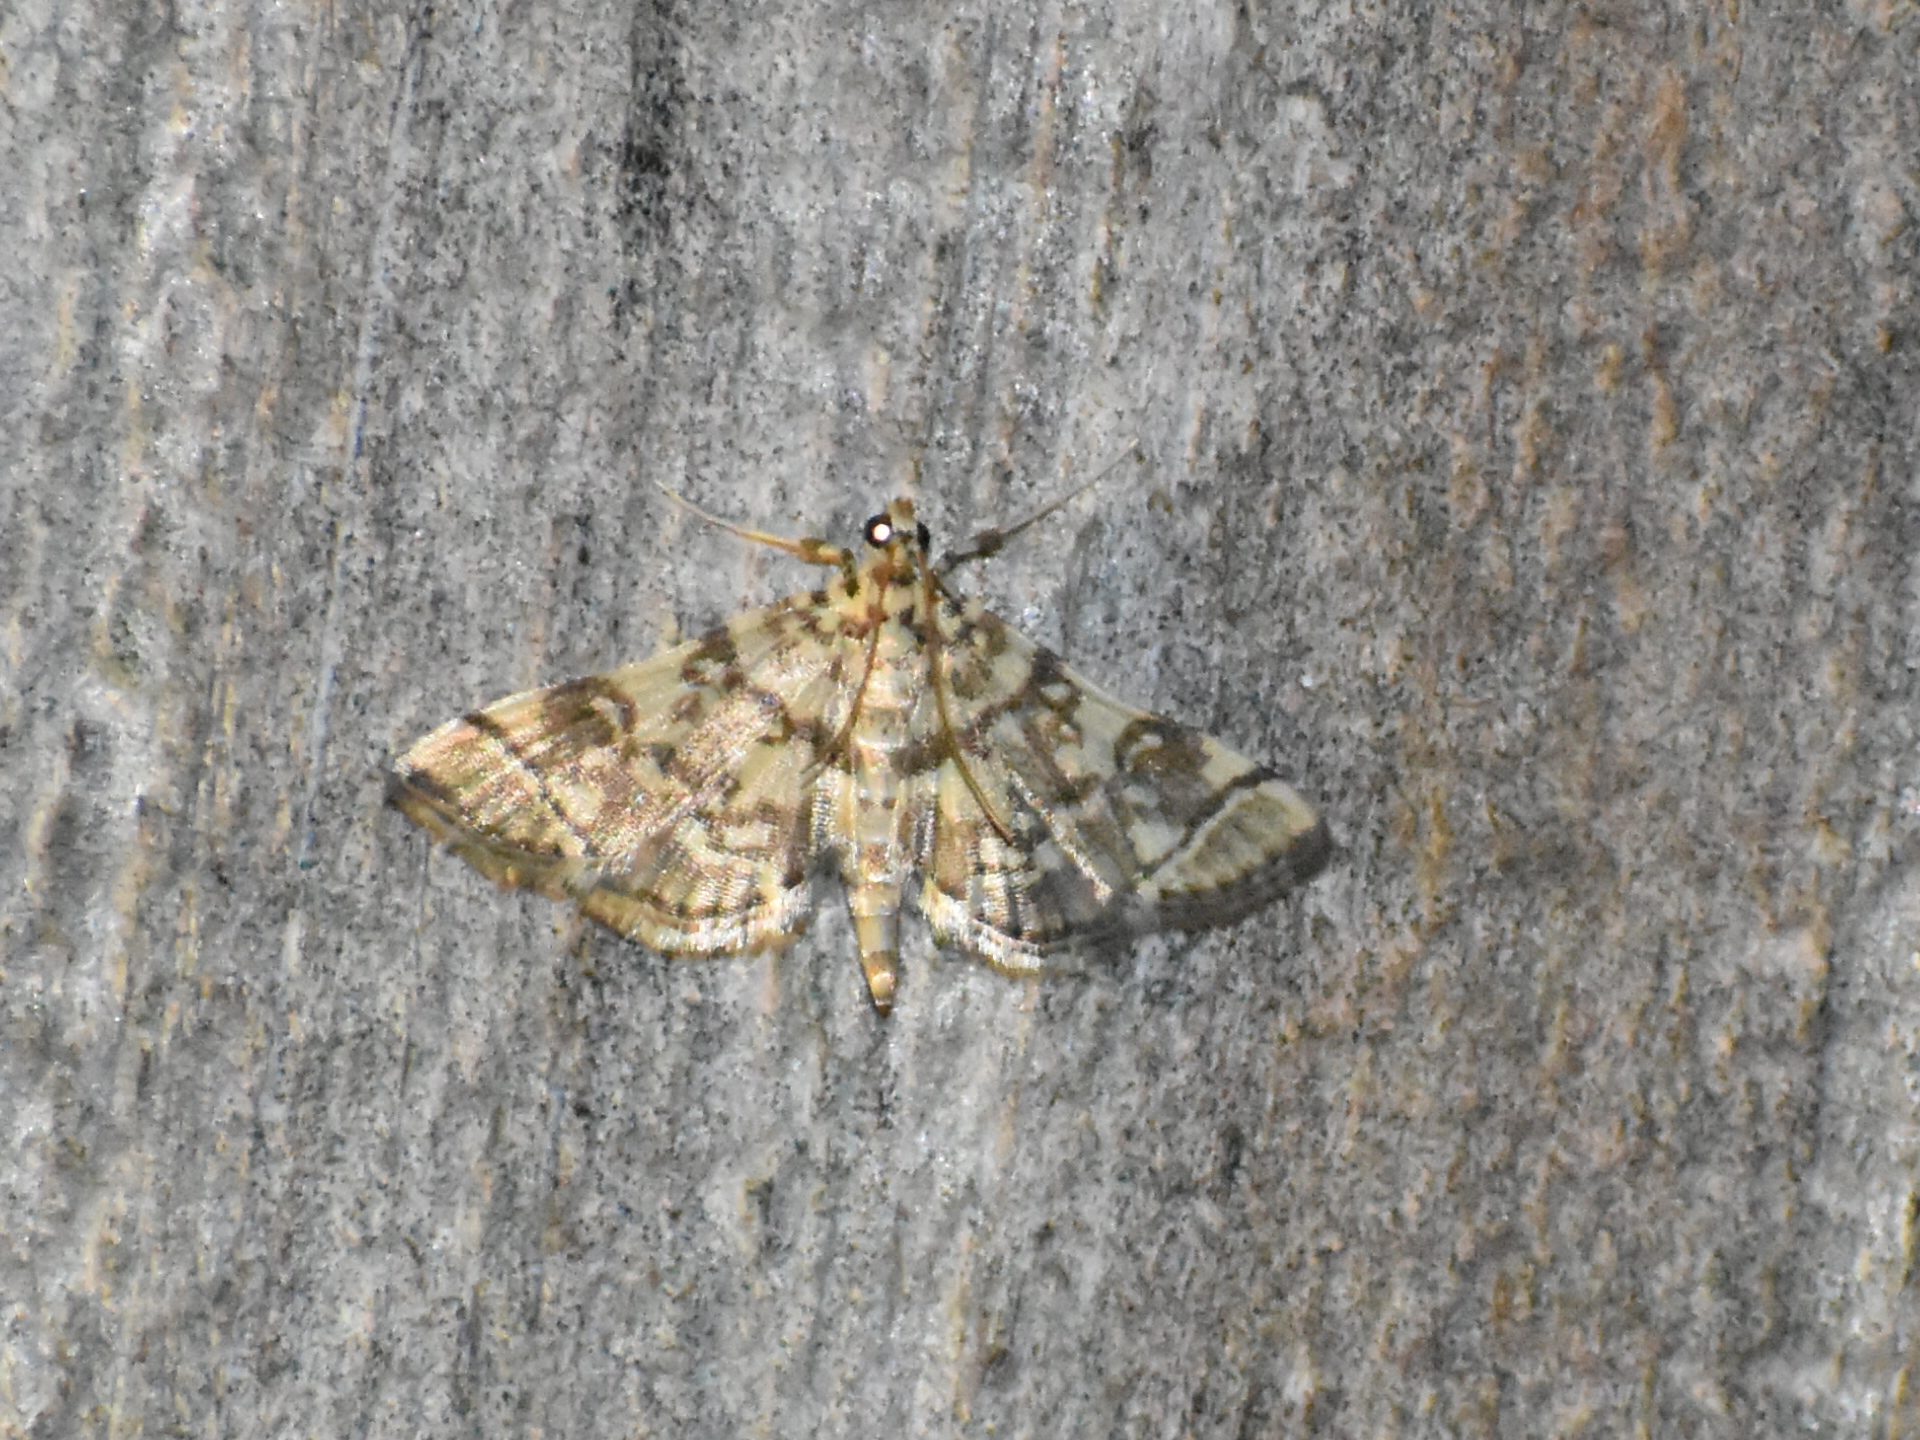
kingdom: Animalia
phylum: Arthropoda
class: Insecta
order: Lepidoptera
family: Crambidae
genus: Apogeshna
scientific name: Apogeshna stenialis
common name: Checkered apogeshna moth
